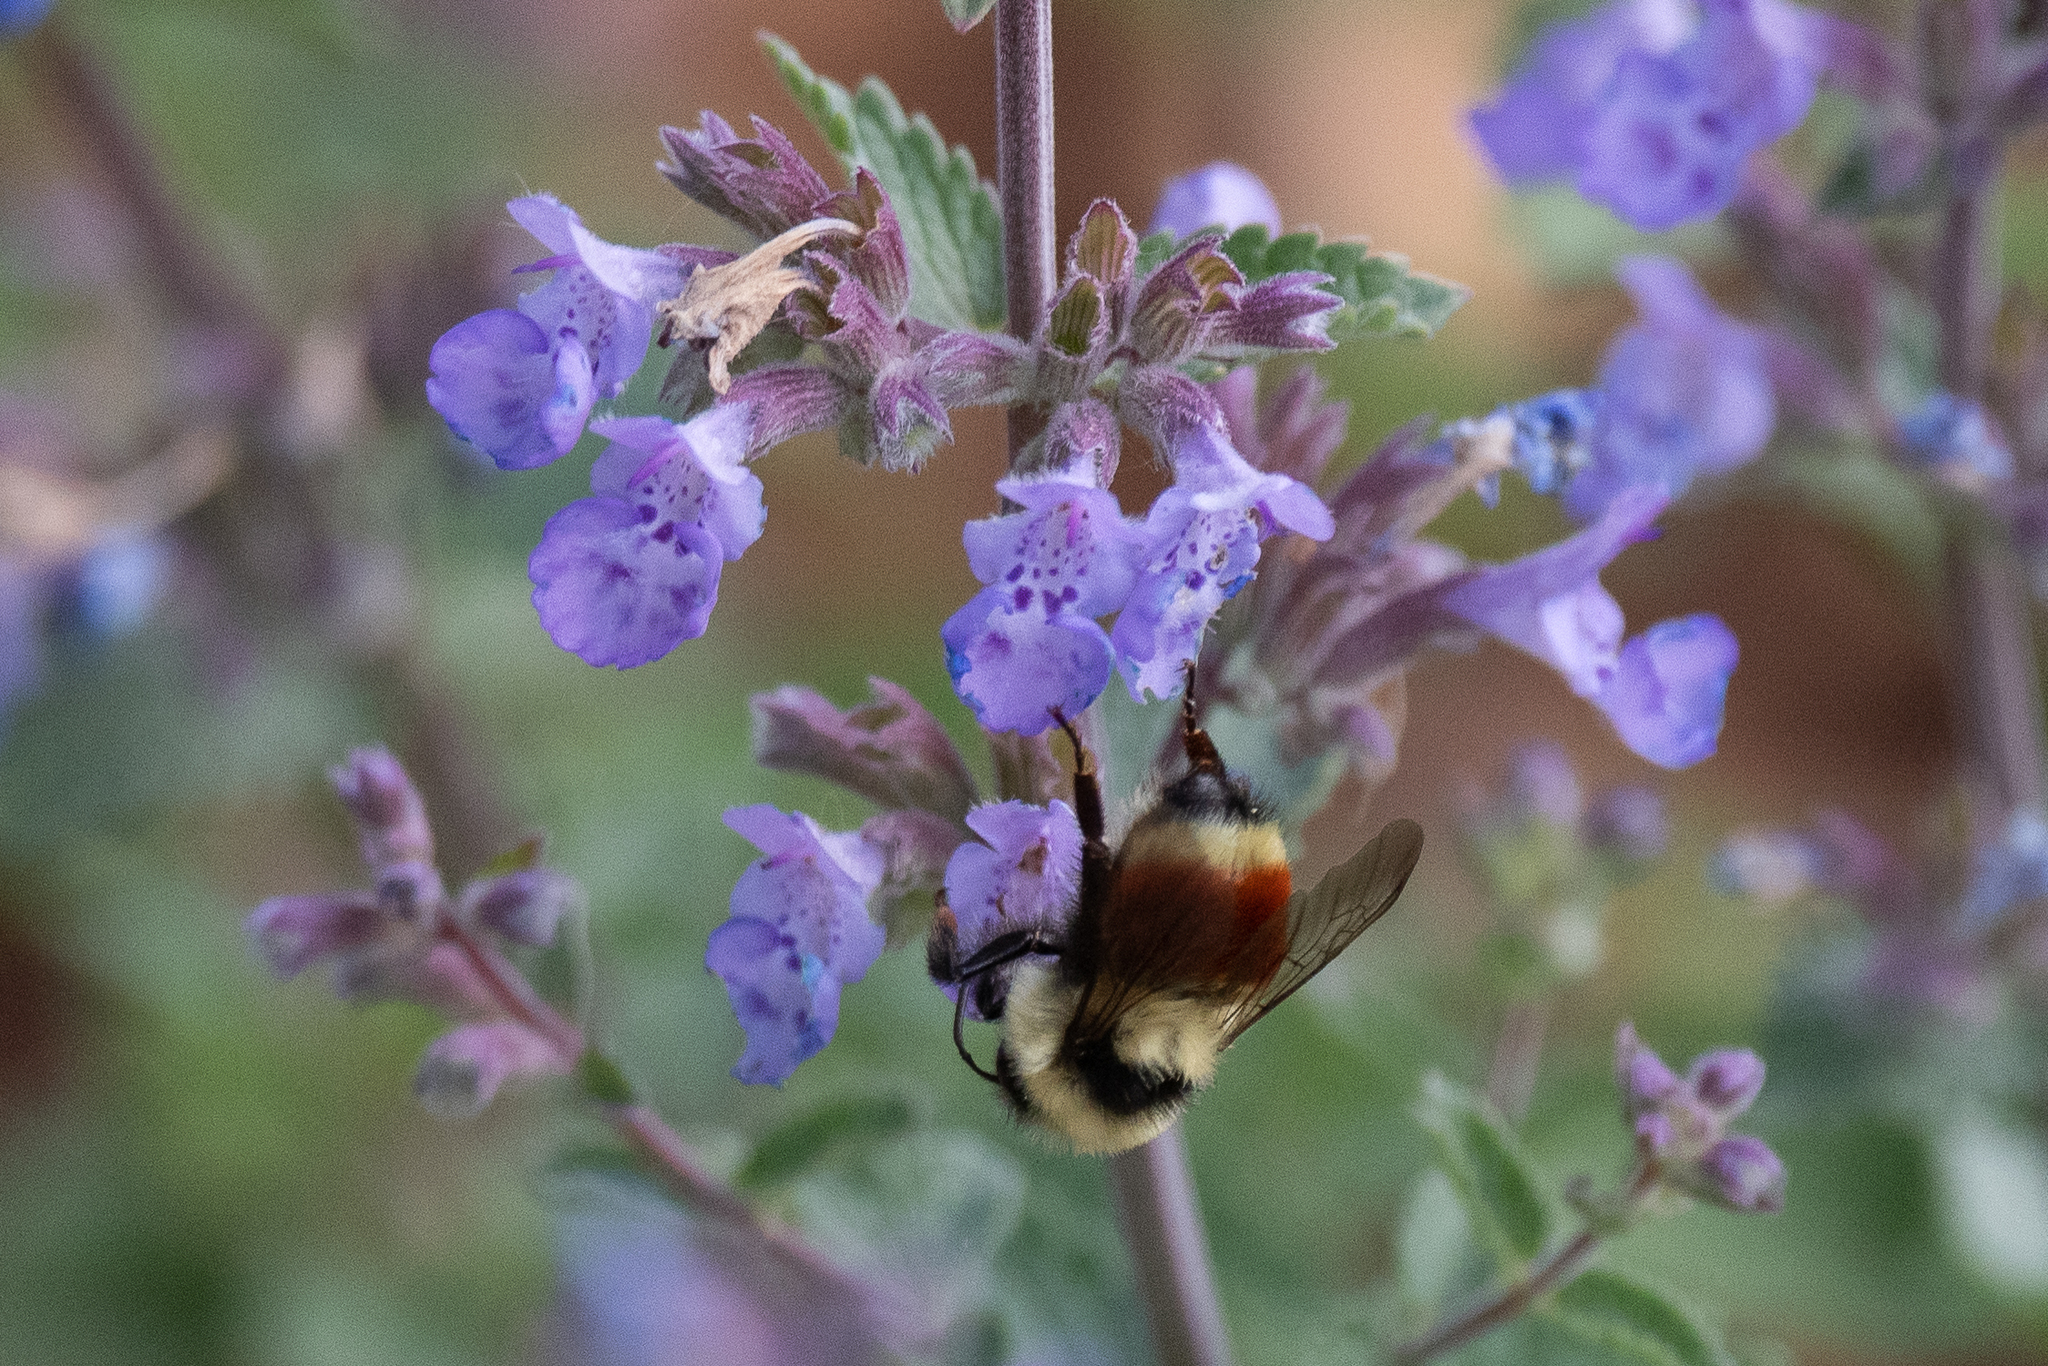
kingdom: Animalia
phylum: Arthropoda
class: Insecta
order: Hymenoptera
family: Apidae
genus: Bombus
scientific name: Bombus huntii
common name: Hunt bumble bee
